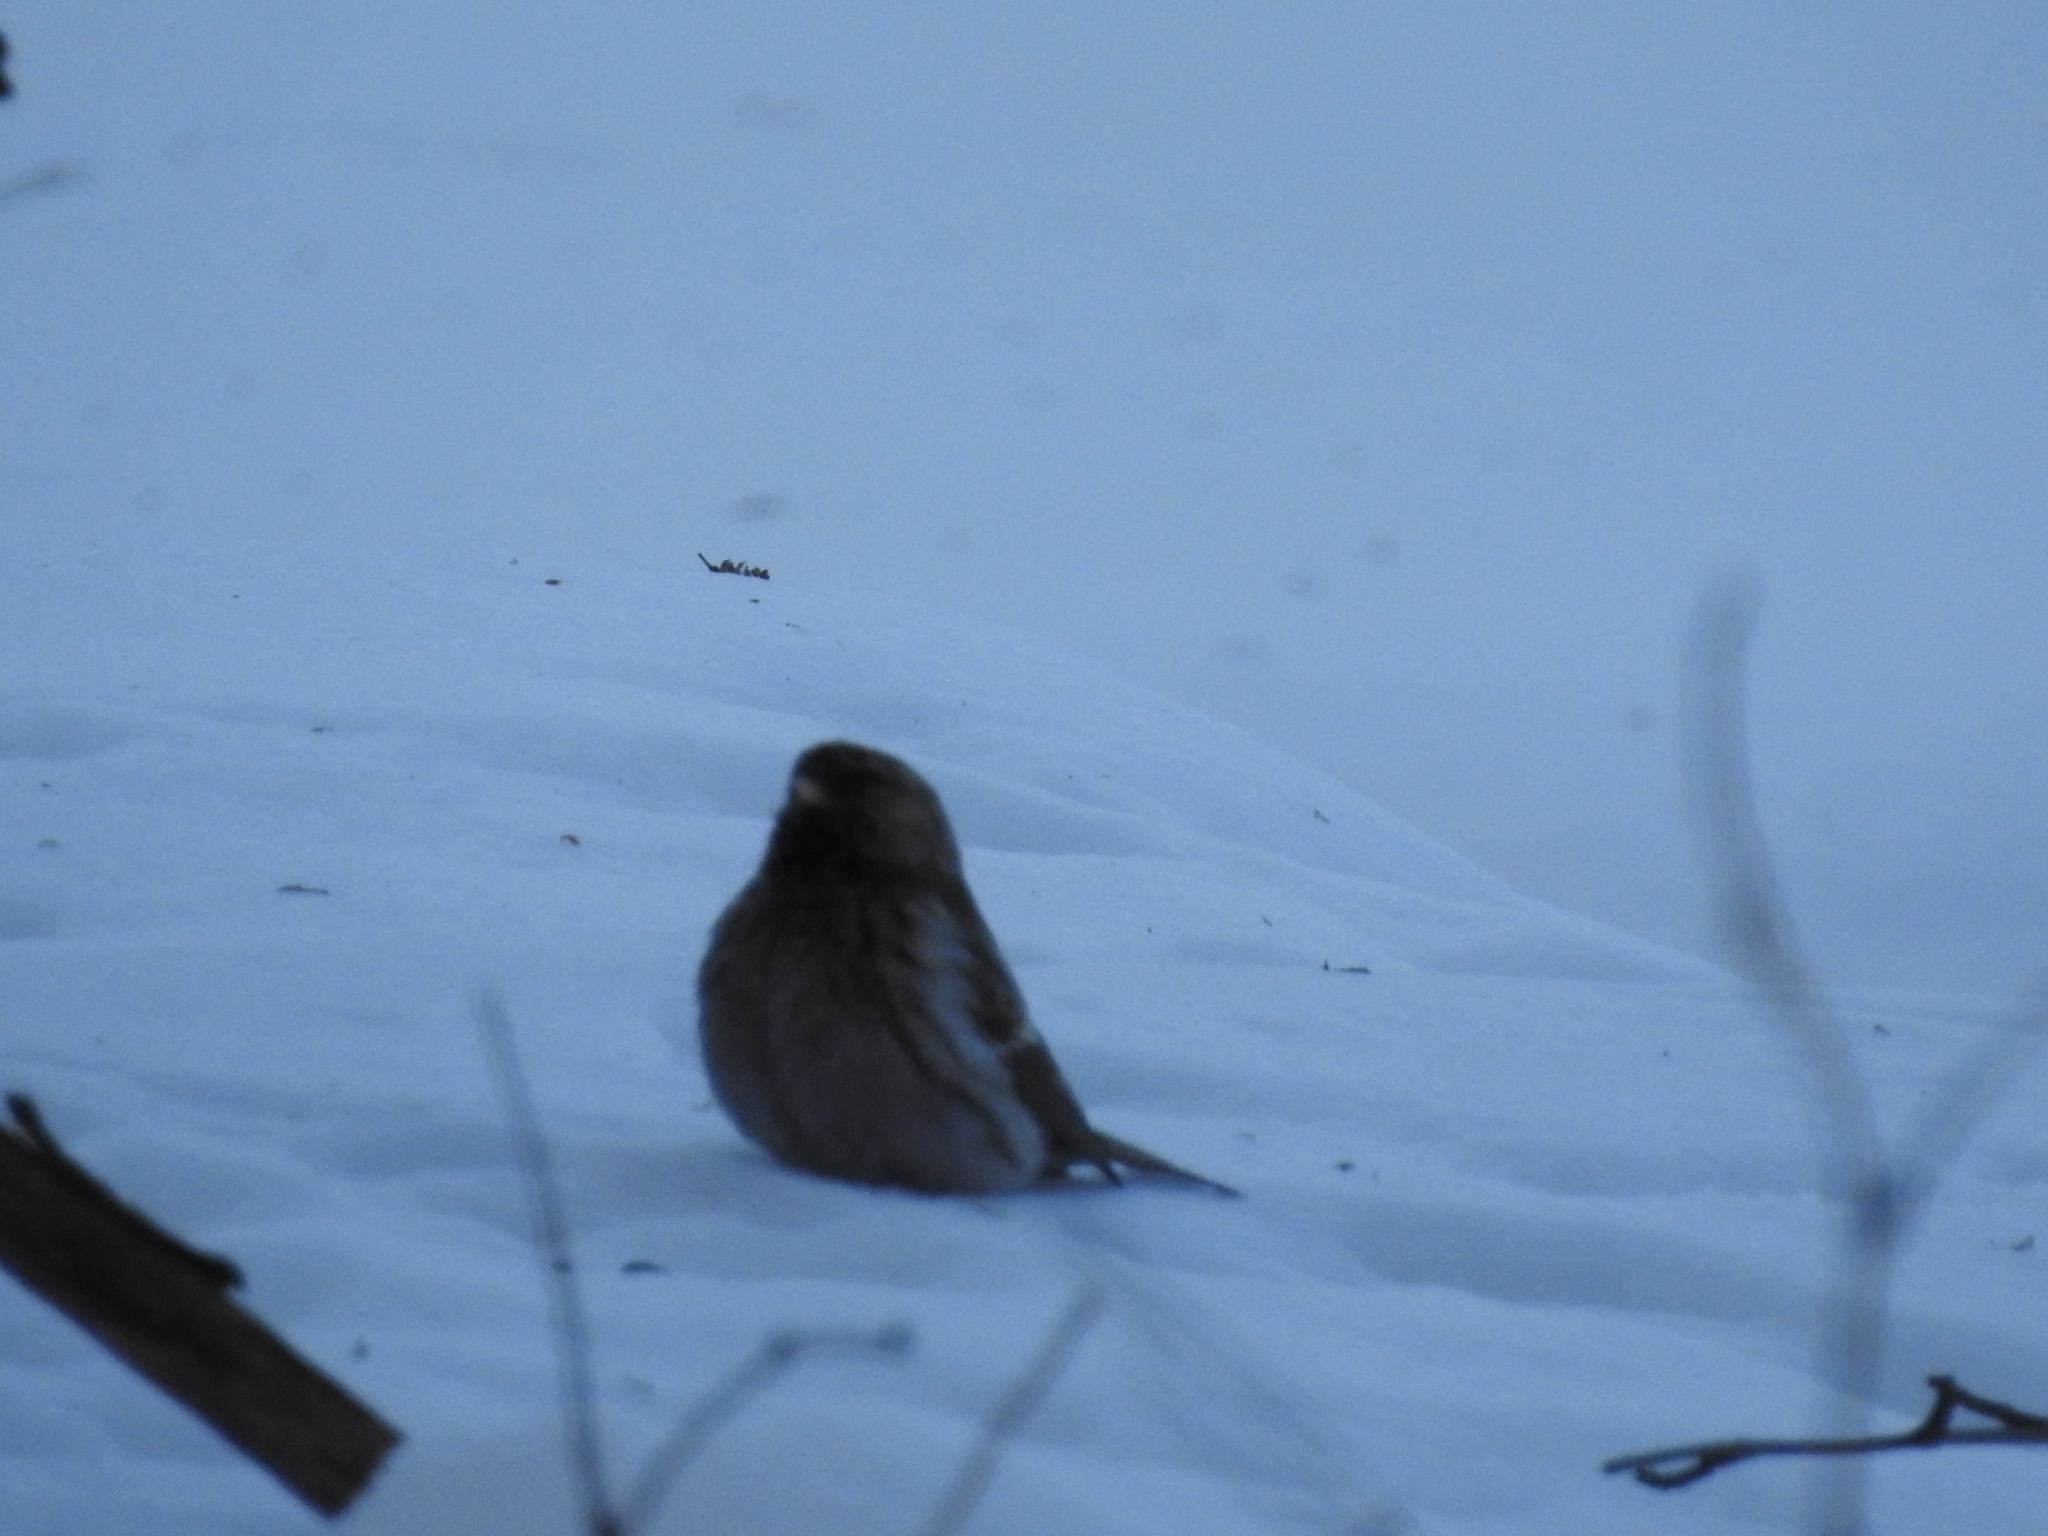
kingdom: Animalia
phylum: Chordata
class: Aves
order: Passeriformes
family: Fringillidae
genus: Acanthis
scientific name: Acanthis flammea
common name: Common redpoll
